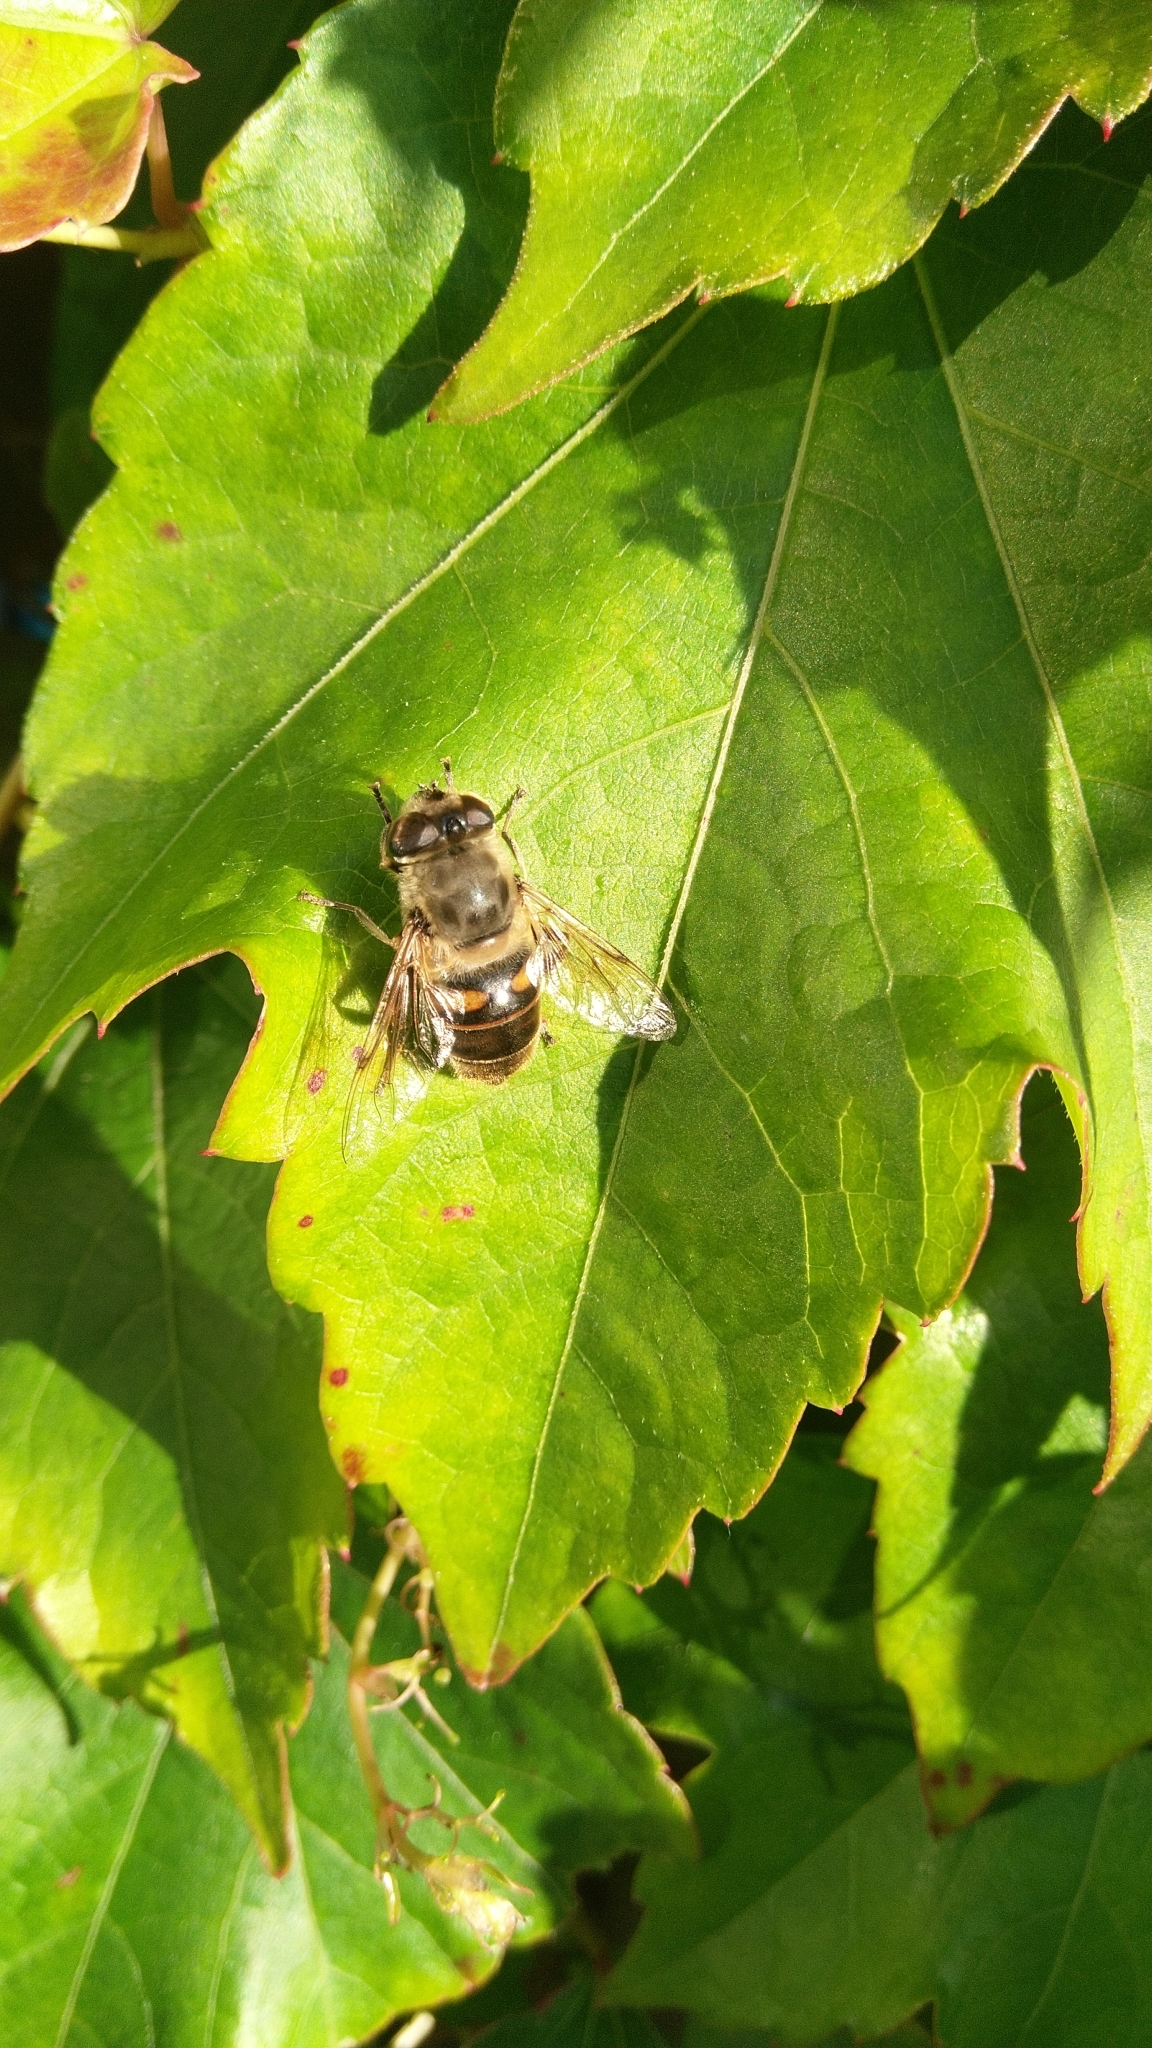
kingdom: Animalia
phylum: Arthropoda
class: Insecta
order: Diptera
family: Syrphidae
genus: Eristalis
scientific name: Eristalis tenax
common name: Drone fly
